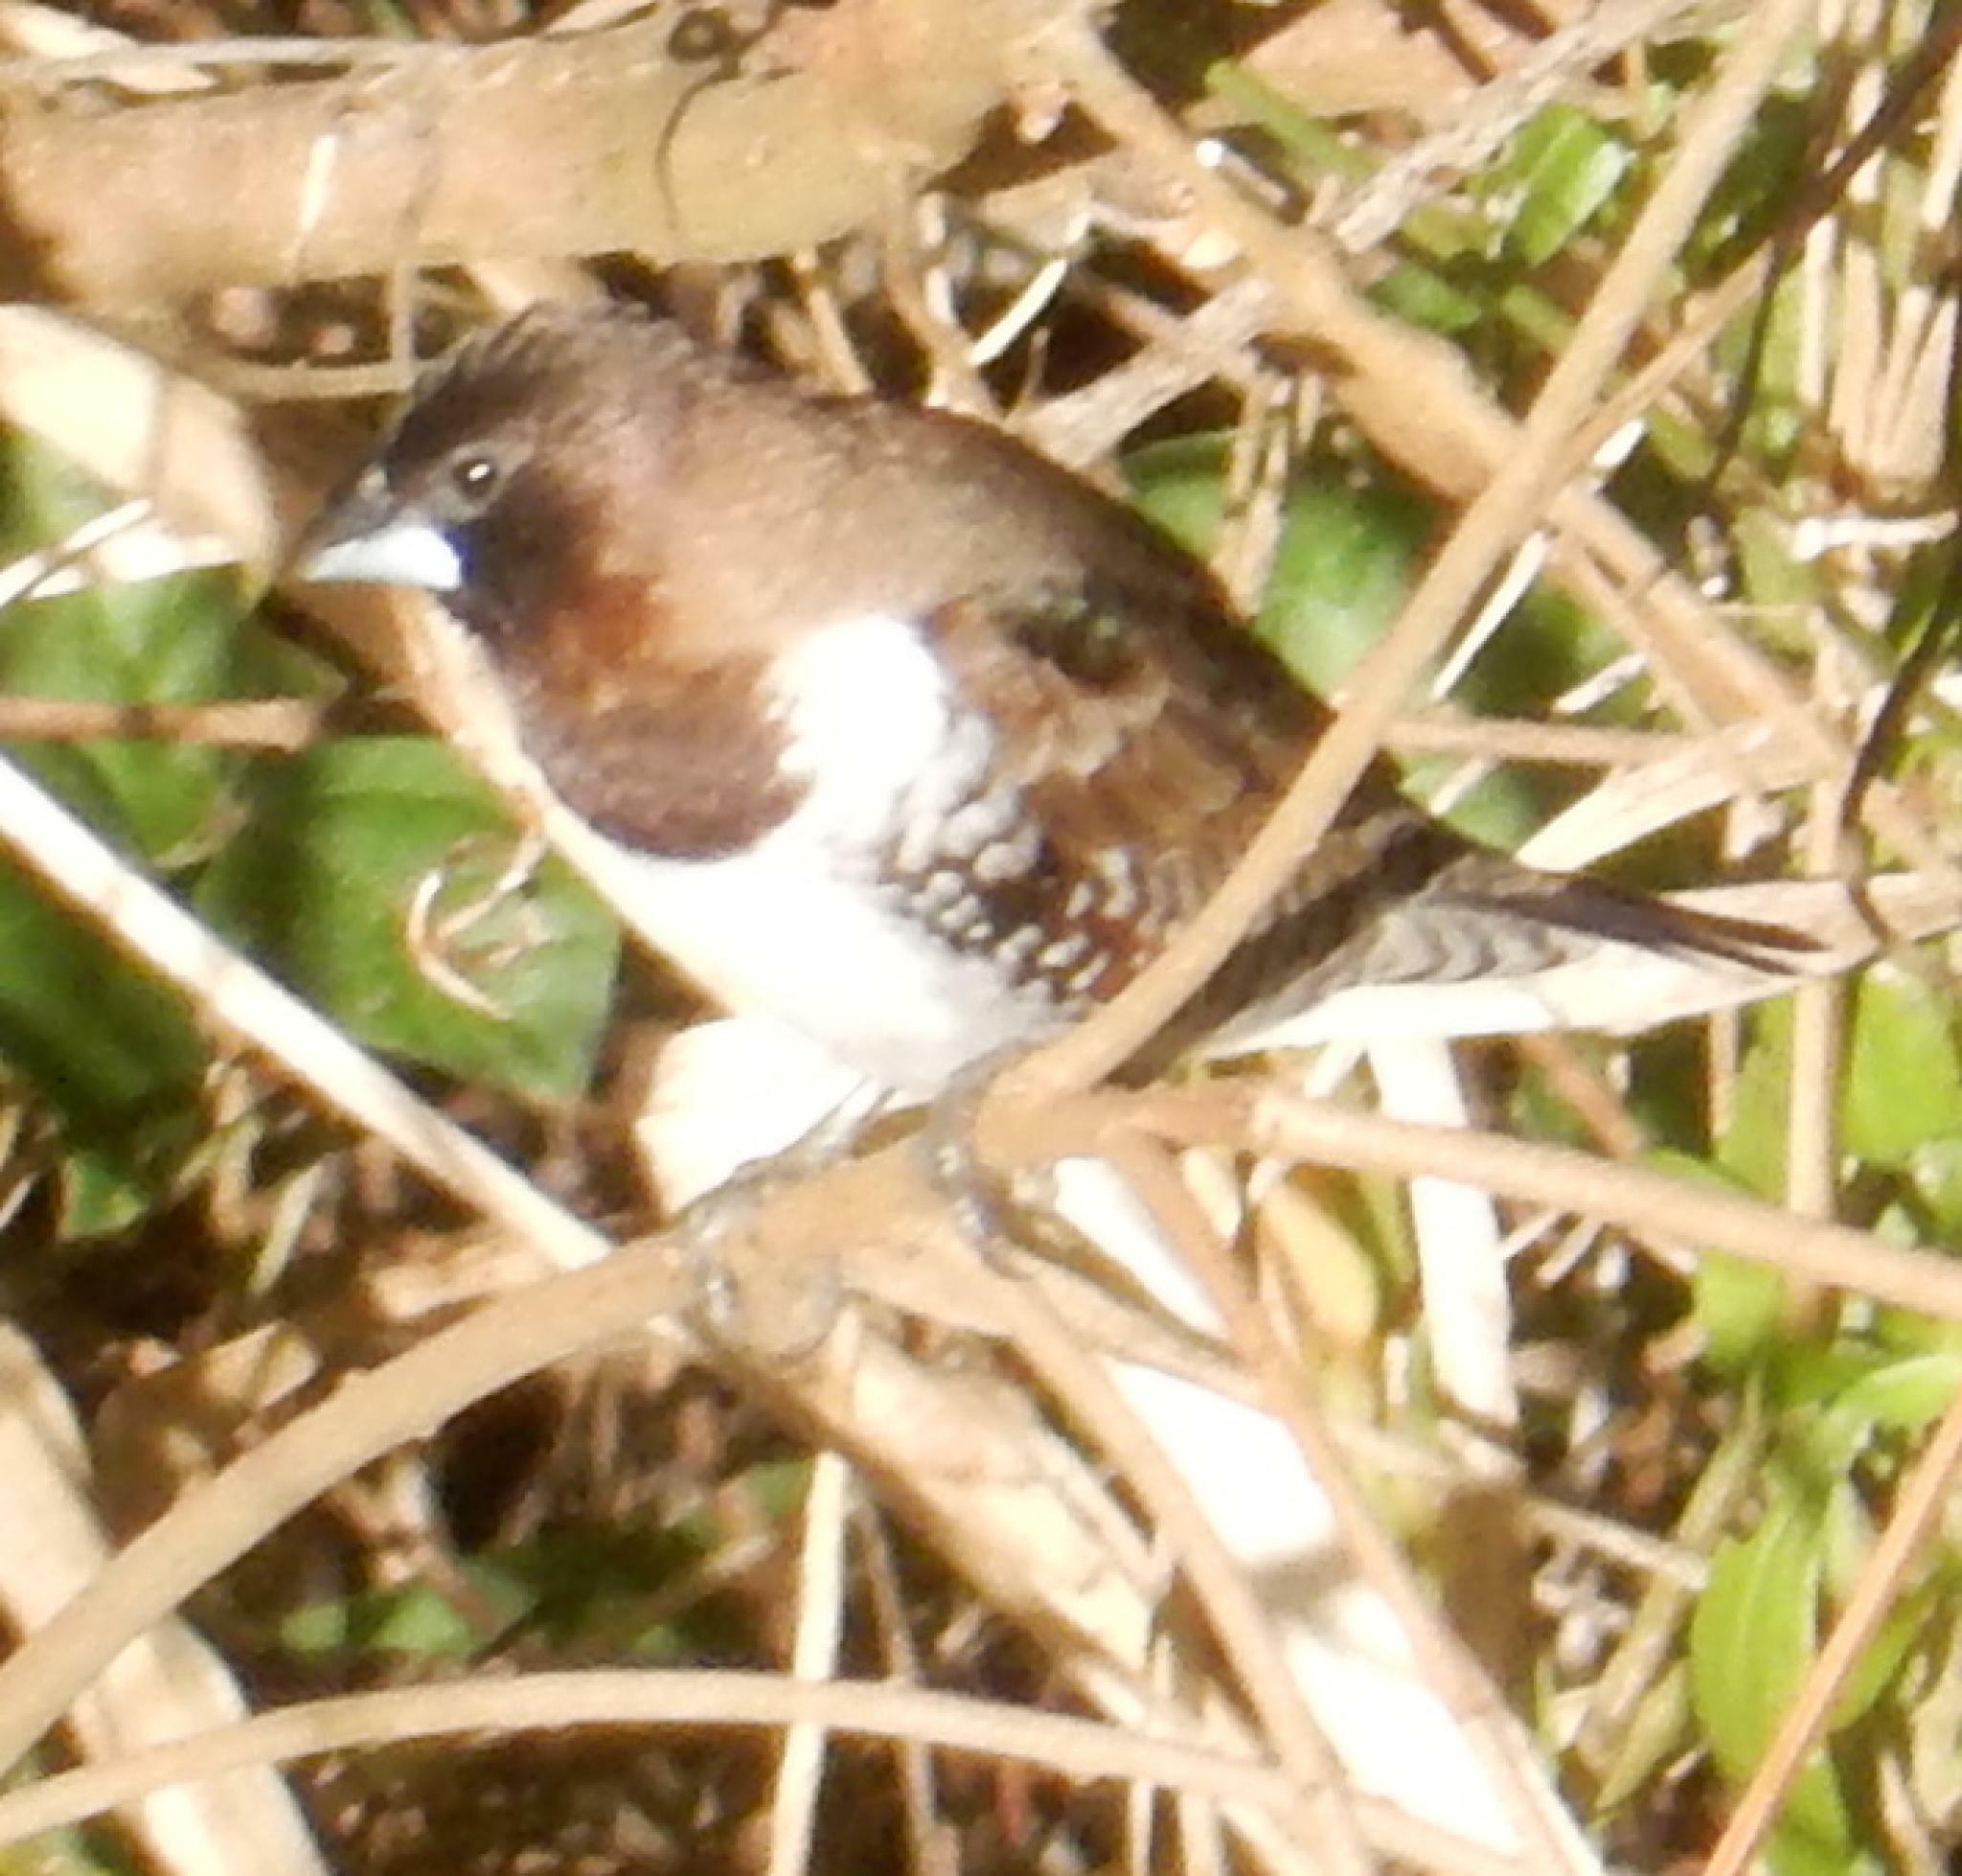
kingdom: Animalia
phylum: Chordata
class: Aves
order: Passeriformes
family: Estrildidae
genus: Lonchura
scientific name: Lonchura cucullata
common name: Bronze mannikin
